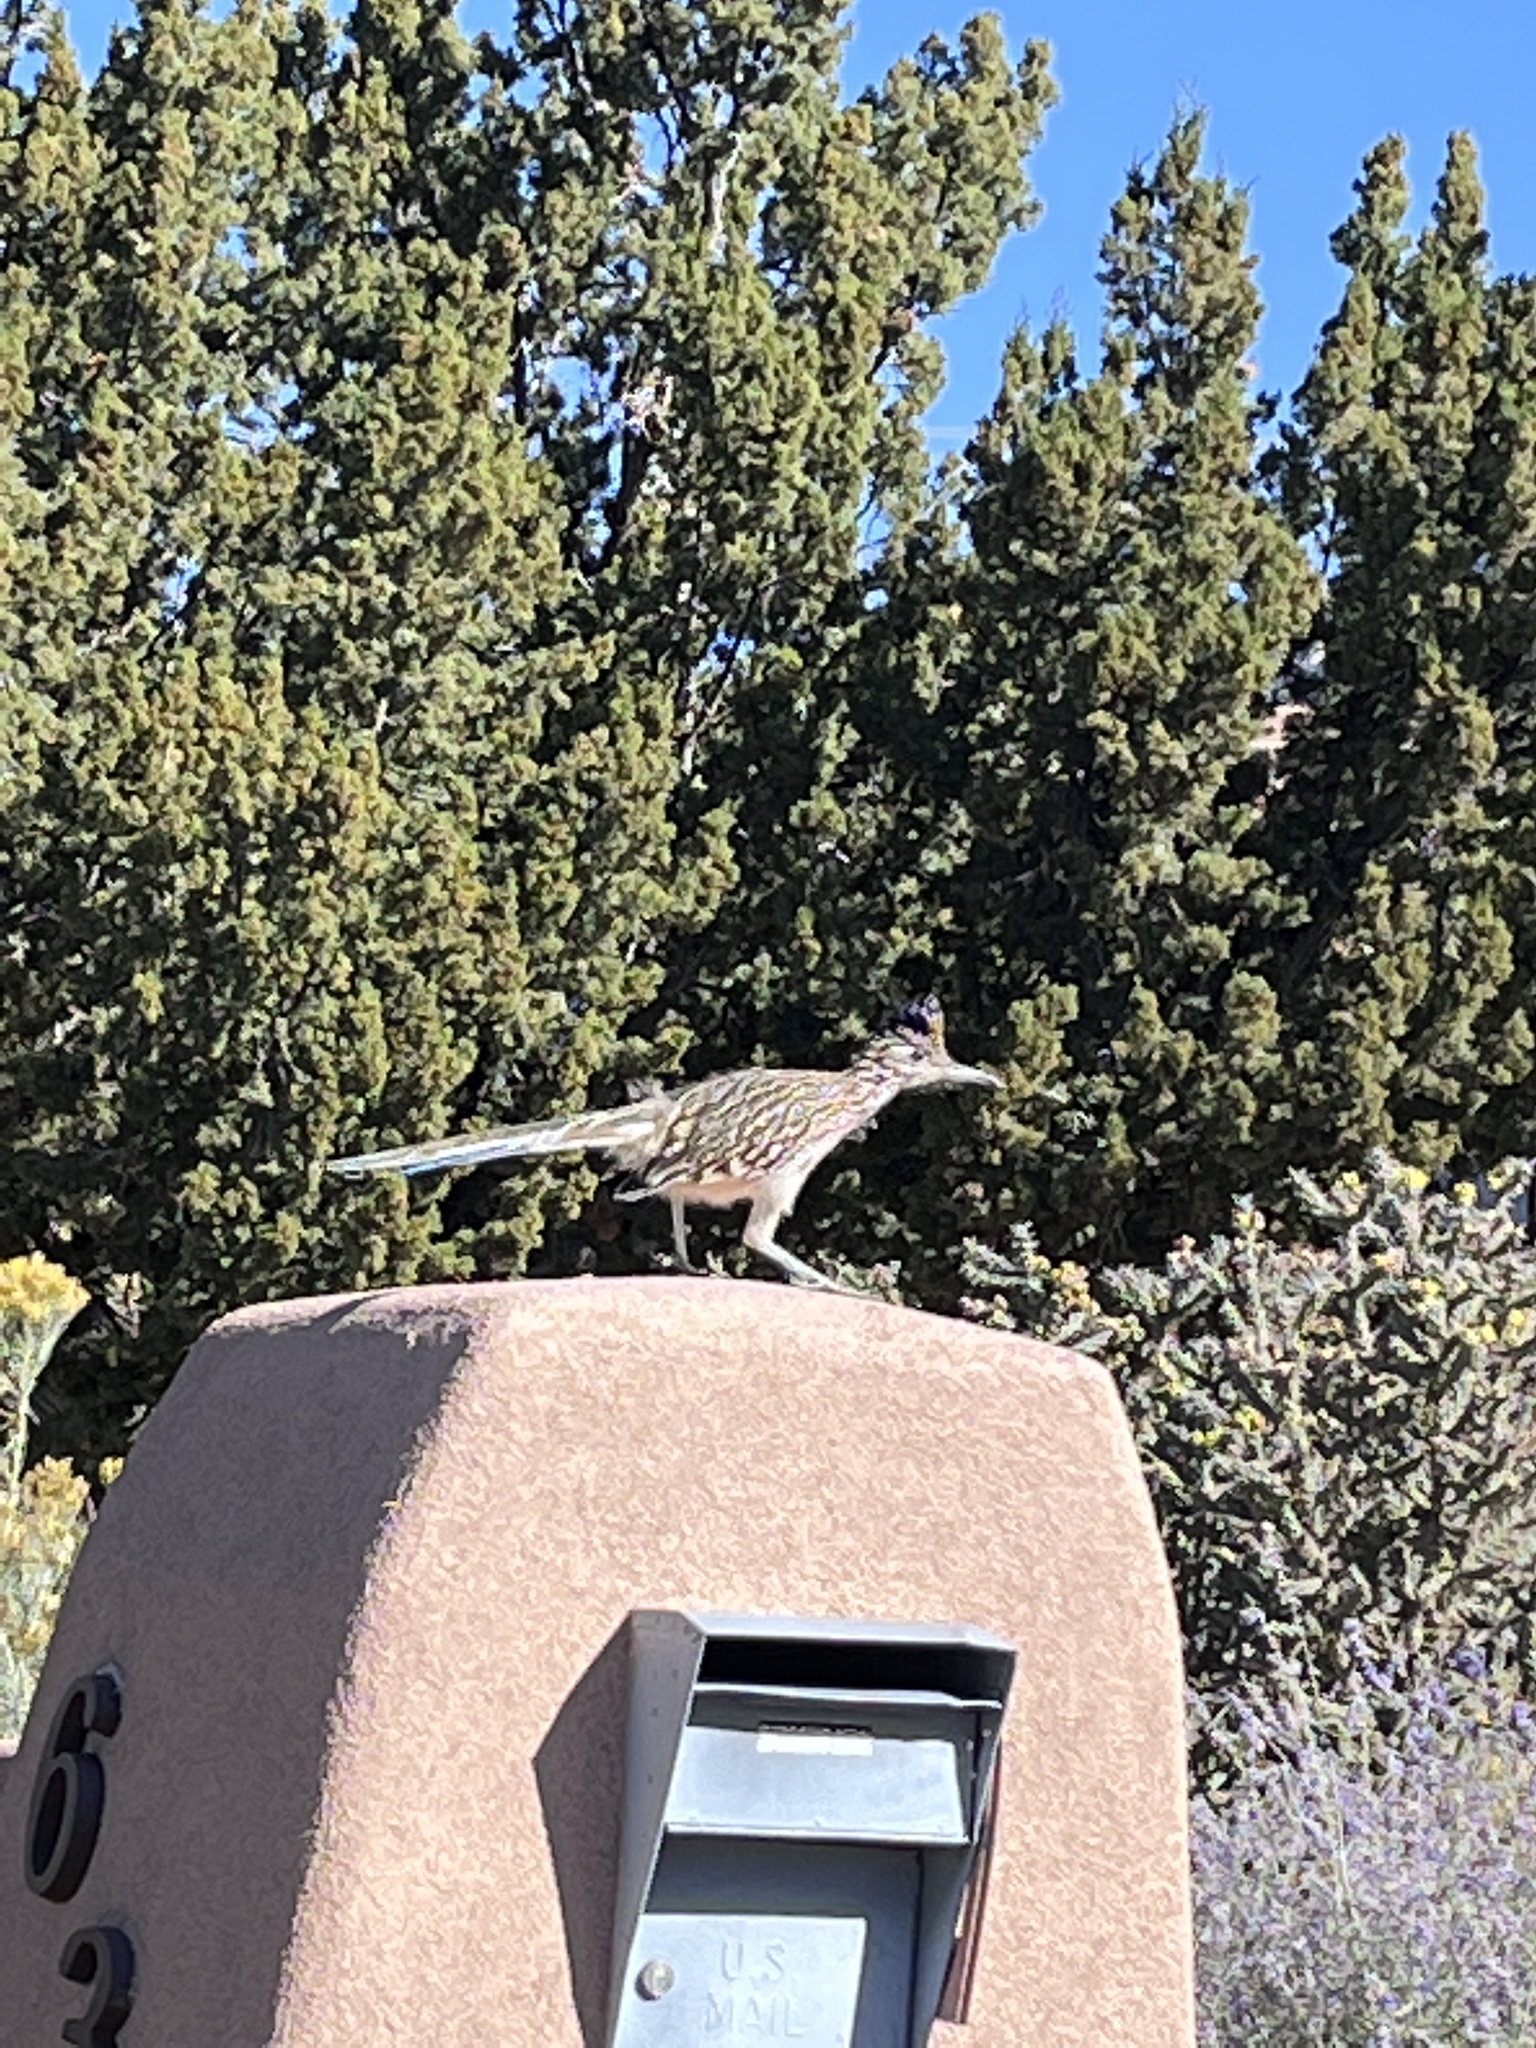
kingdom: Animalia
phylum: Chordata
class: Aves
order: Cuculiformes
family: Cuculidae
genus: Geococcyx
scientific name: Geococcyx californianus
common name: Greater roadrunner
